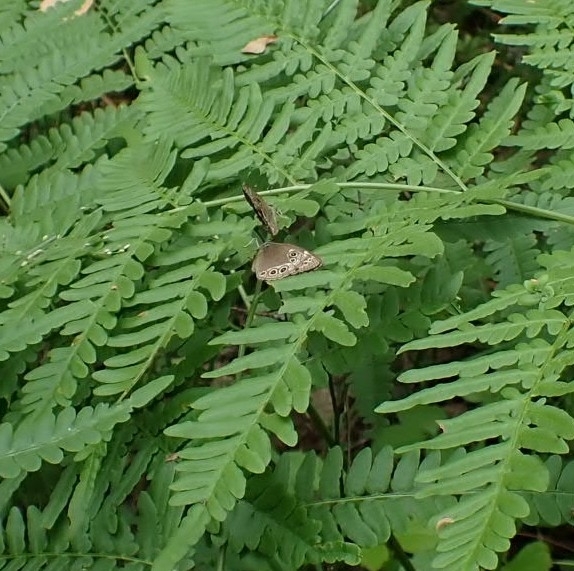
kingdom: Animalia
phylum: Arthropoda
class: Insecta
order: Lepidoptera
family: Nymphalidae
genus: Pararge
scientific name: Pararge Lopinga achine
